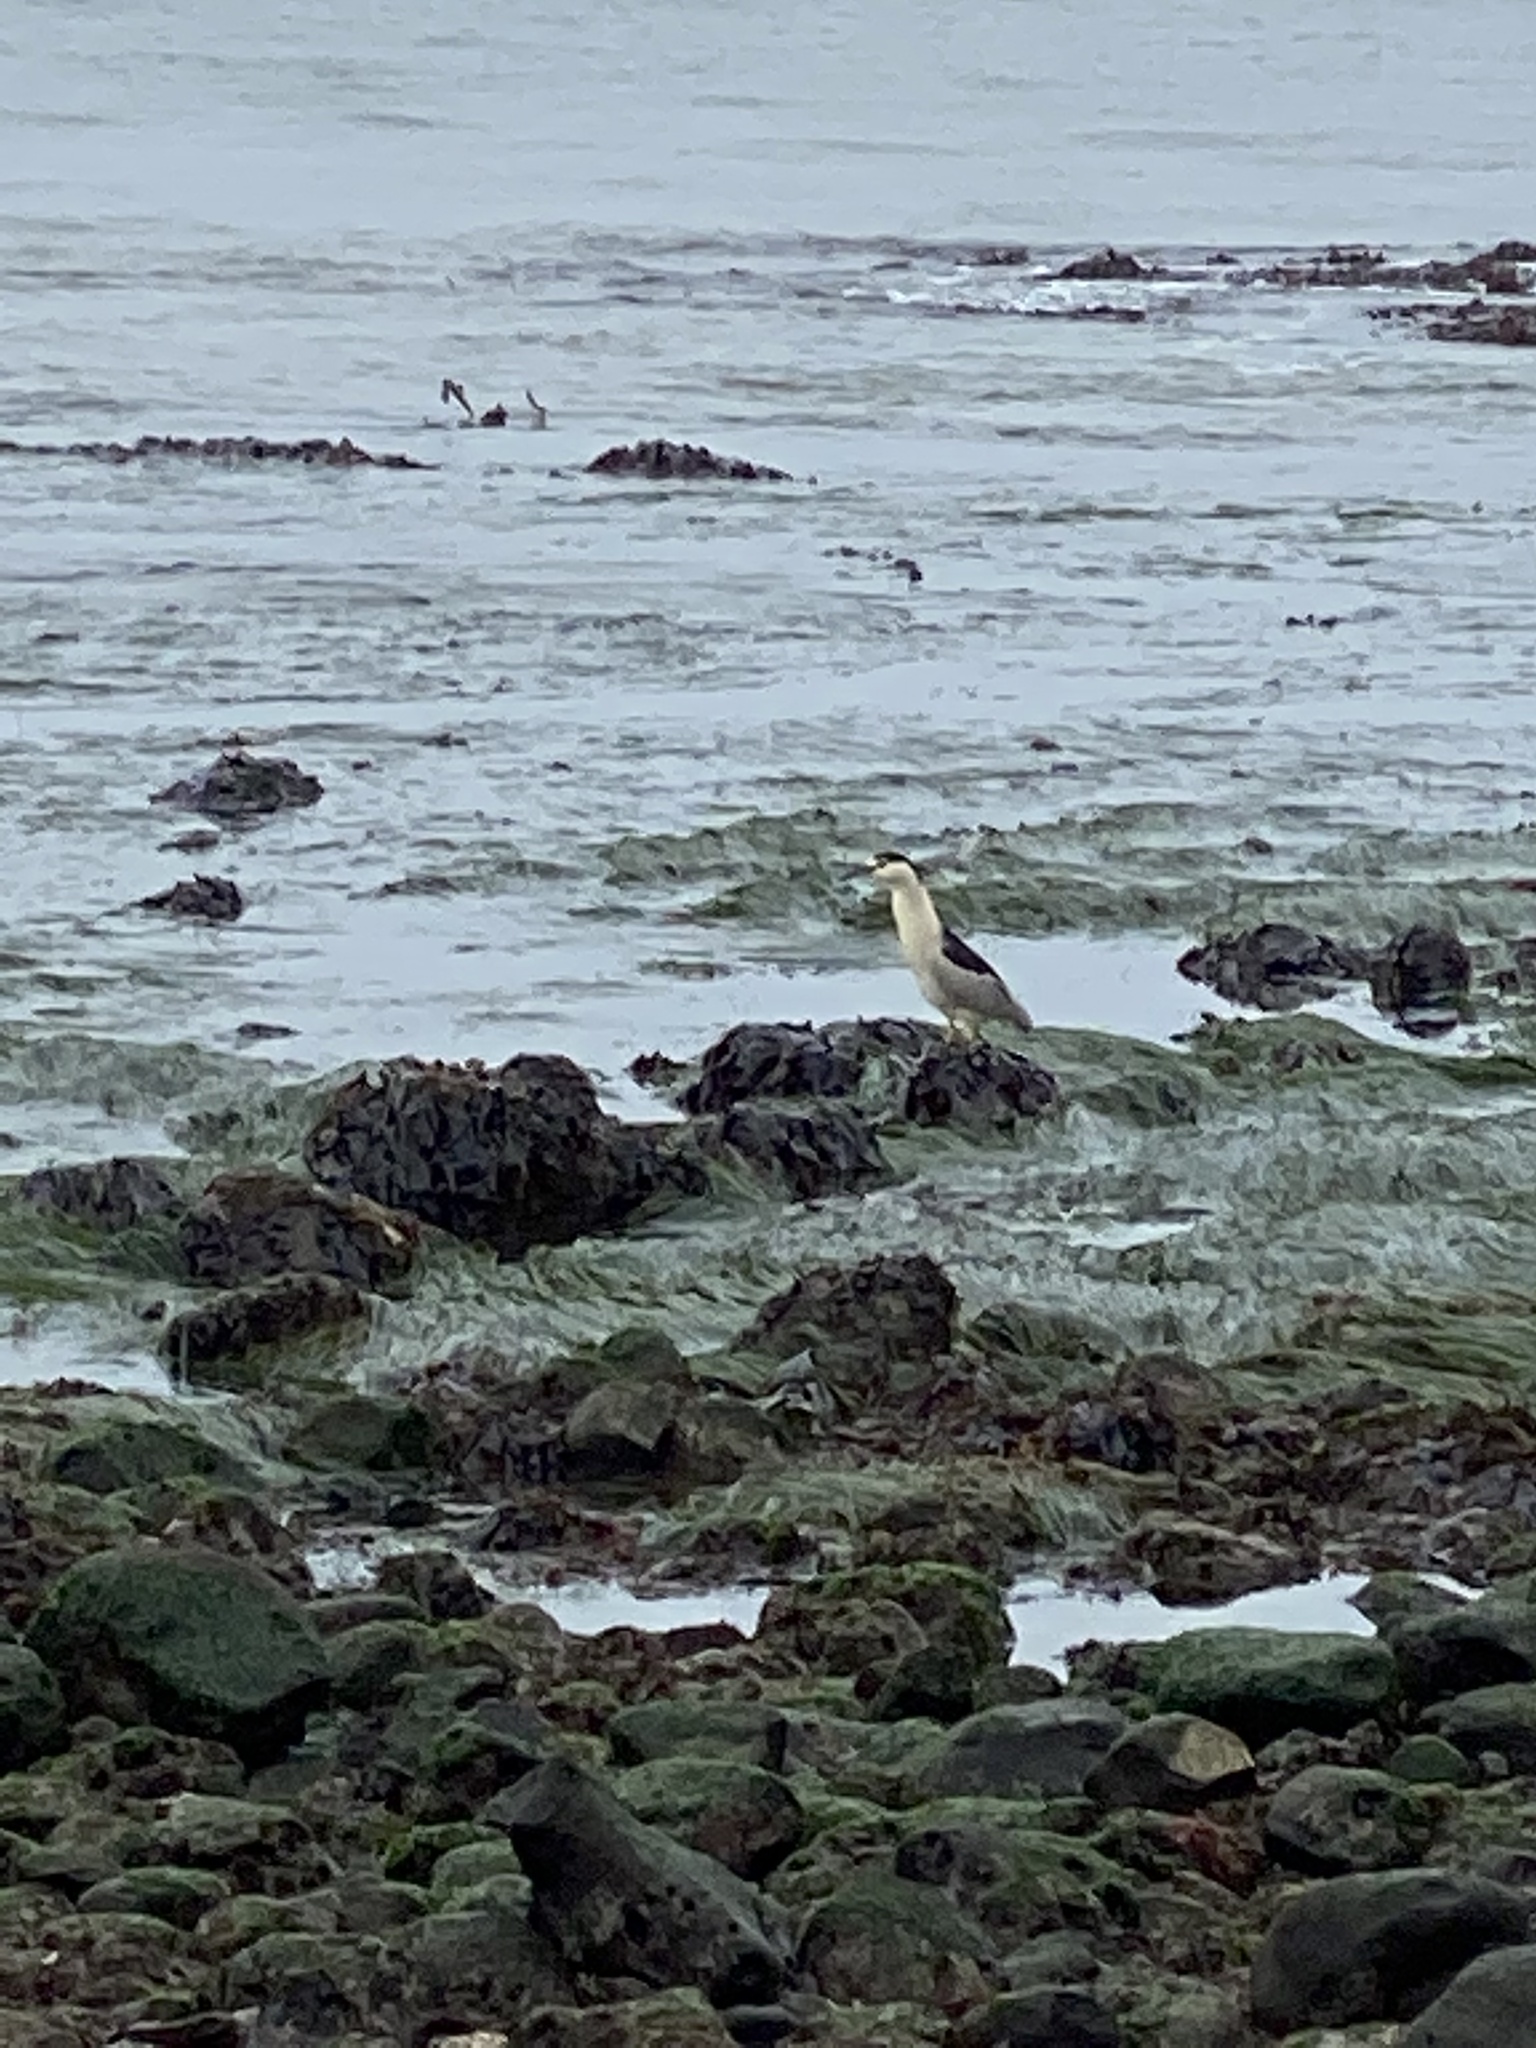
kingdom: Animalia
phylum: Chordata
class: Aves
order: Pelecaniformes
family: Ardeidae
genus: Nycticorax
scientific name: Nycticorax nycticorax
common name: Black-crowned night heron
